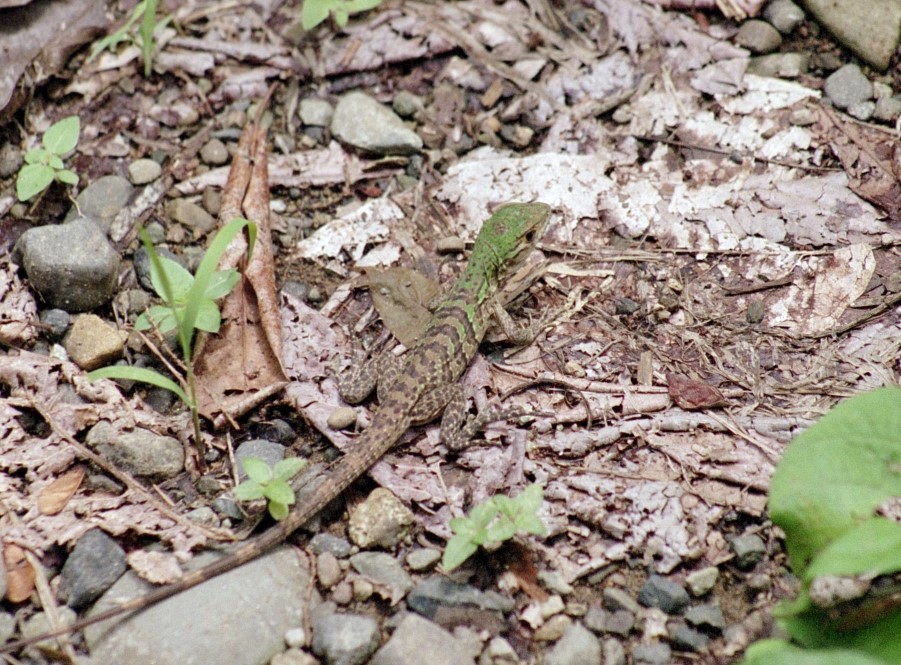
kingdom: Animalia
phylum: Chordata
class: Squamata
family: Iguanidae
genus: Ctenosaura
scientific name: Ctenosaura similis
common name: Black spiny-tailed iguana
